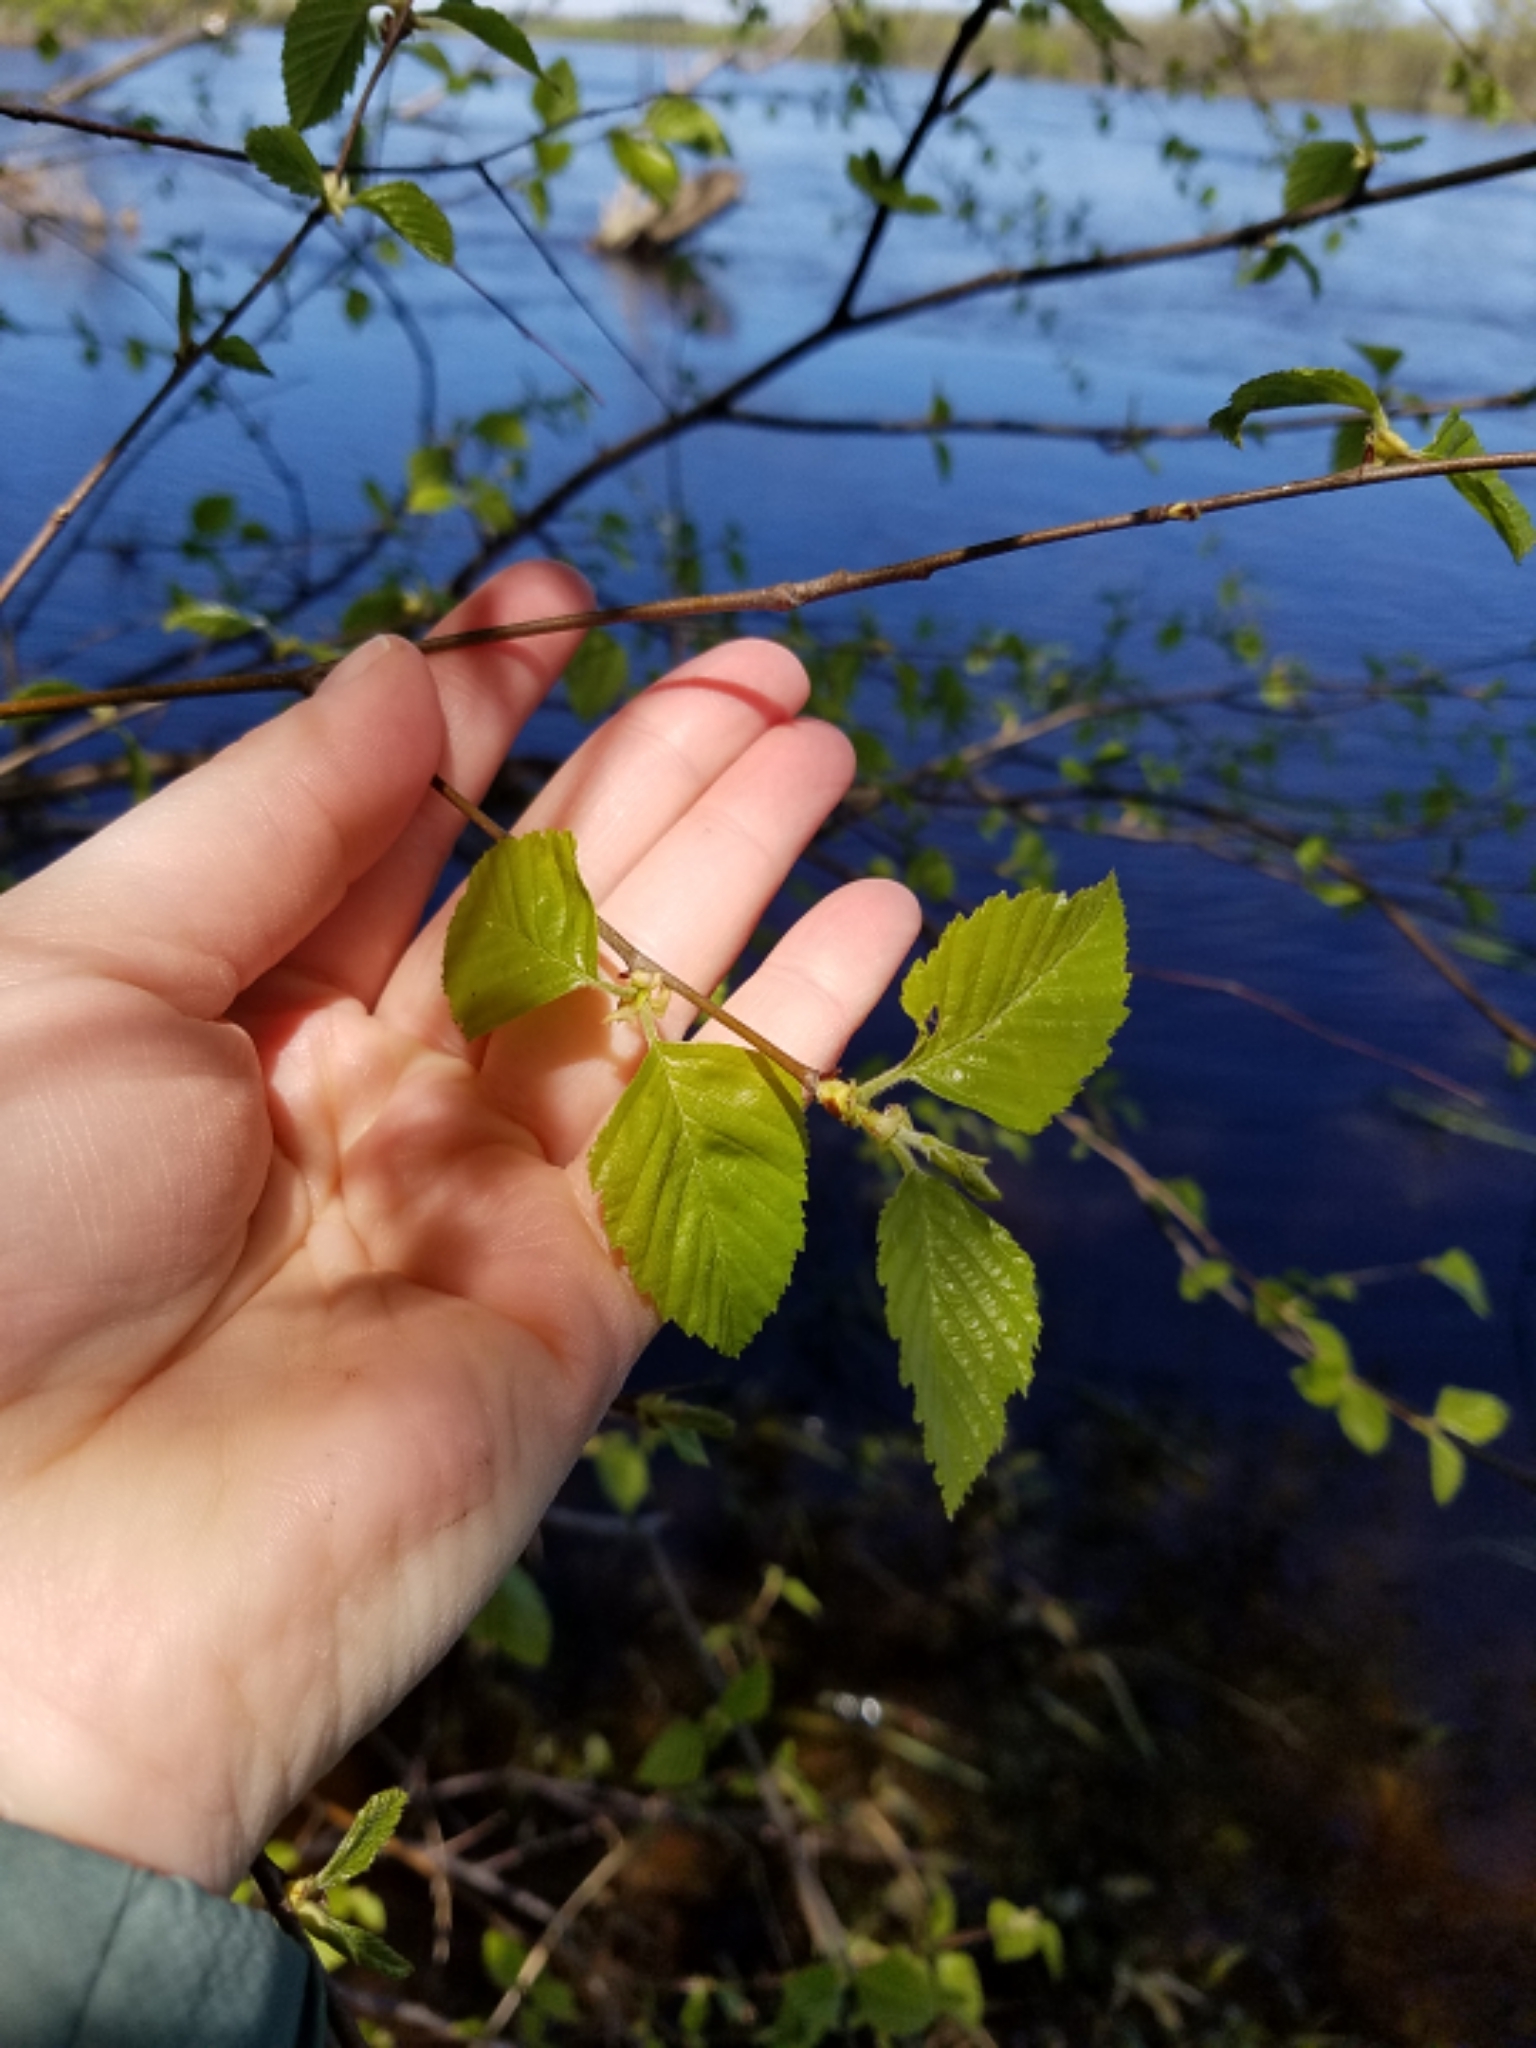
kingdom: Plantae
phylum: Tracheophyta
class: Magnoliopsida
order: Fagales
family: Betulaceae
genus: Betula
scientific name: Betula nigra
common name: Black birch
